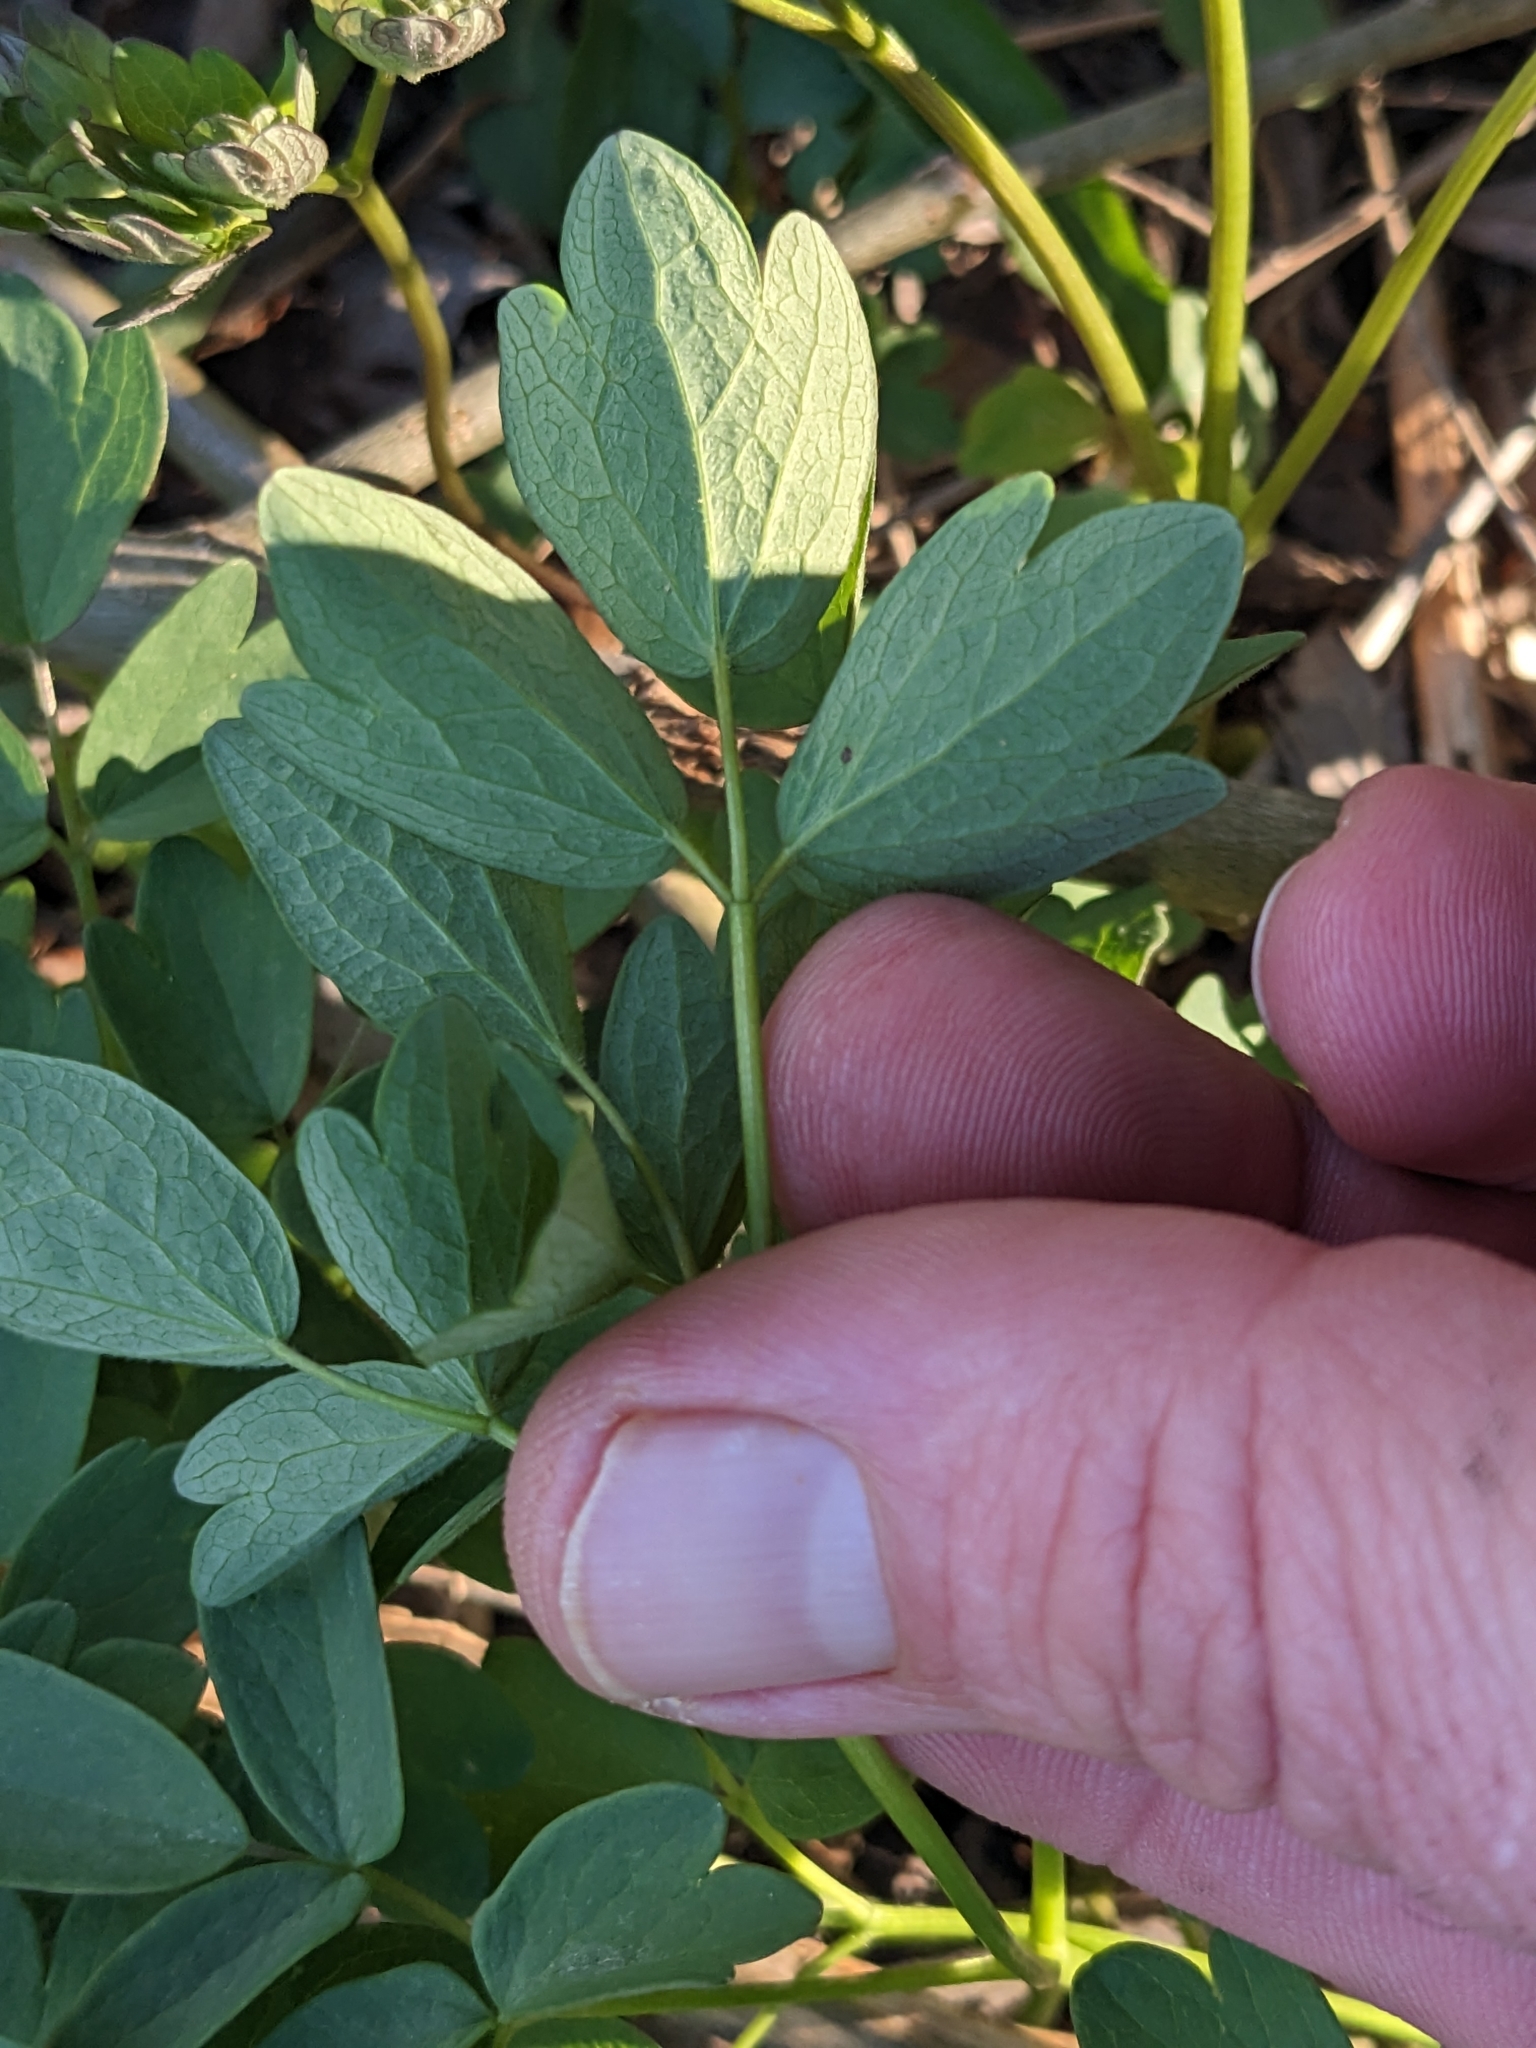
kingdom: Plantae
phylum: Tracheophyta
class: Magnoliopsida
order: Ranunculales
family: Ranunculaceae
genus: Thalictrum
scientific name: Thalictrum dasycarpum
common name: Purple meadow-rue
